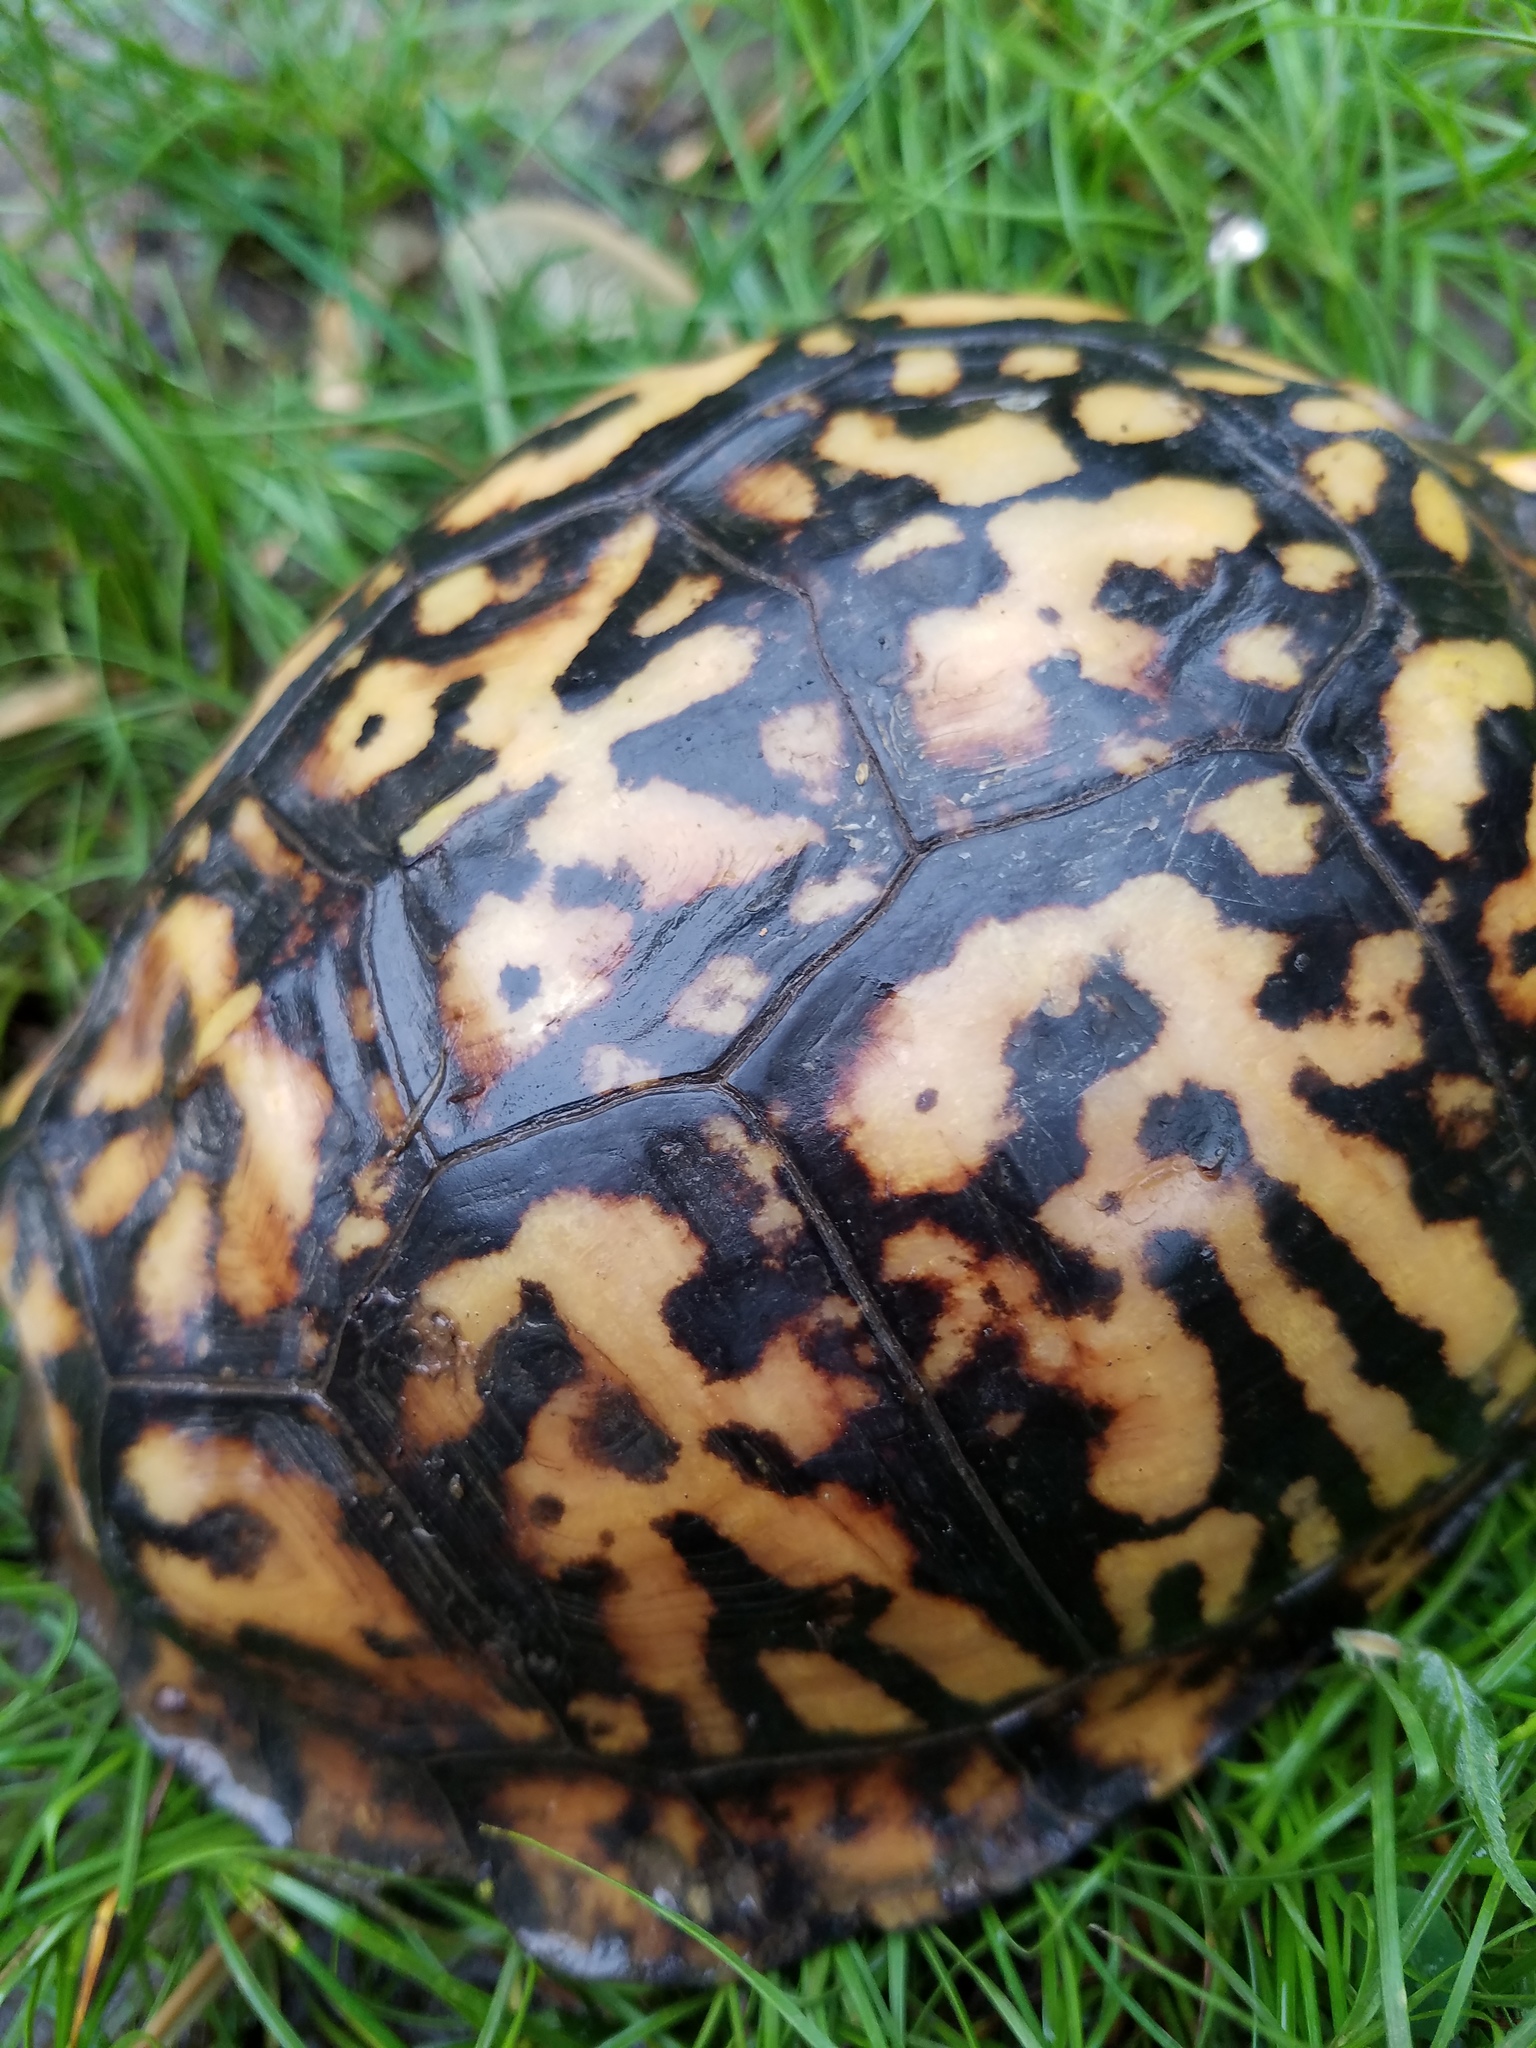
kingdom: Animalia
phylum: Chordata
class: Testudines
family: Emydidae
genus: Terrapene
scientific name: Terrapene carolina
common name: Common box turtle
